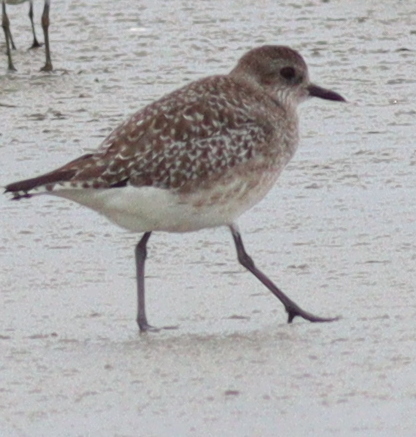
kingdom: Animalia
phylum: Chordata
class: Aves
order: Charadriiformes
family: Charadriidae
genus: Pluvialis
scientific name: Pluvialis squatarola
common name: Grey plover
